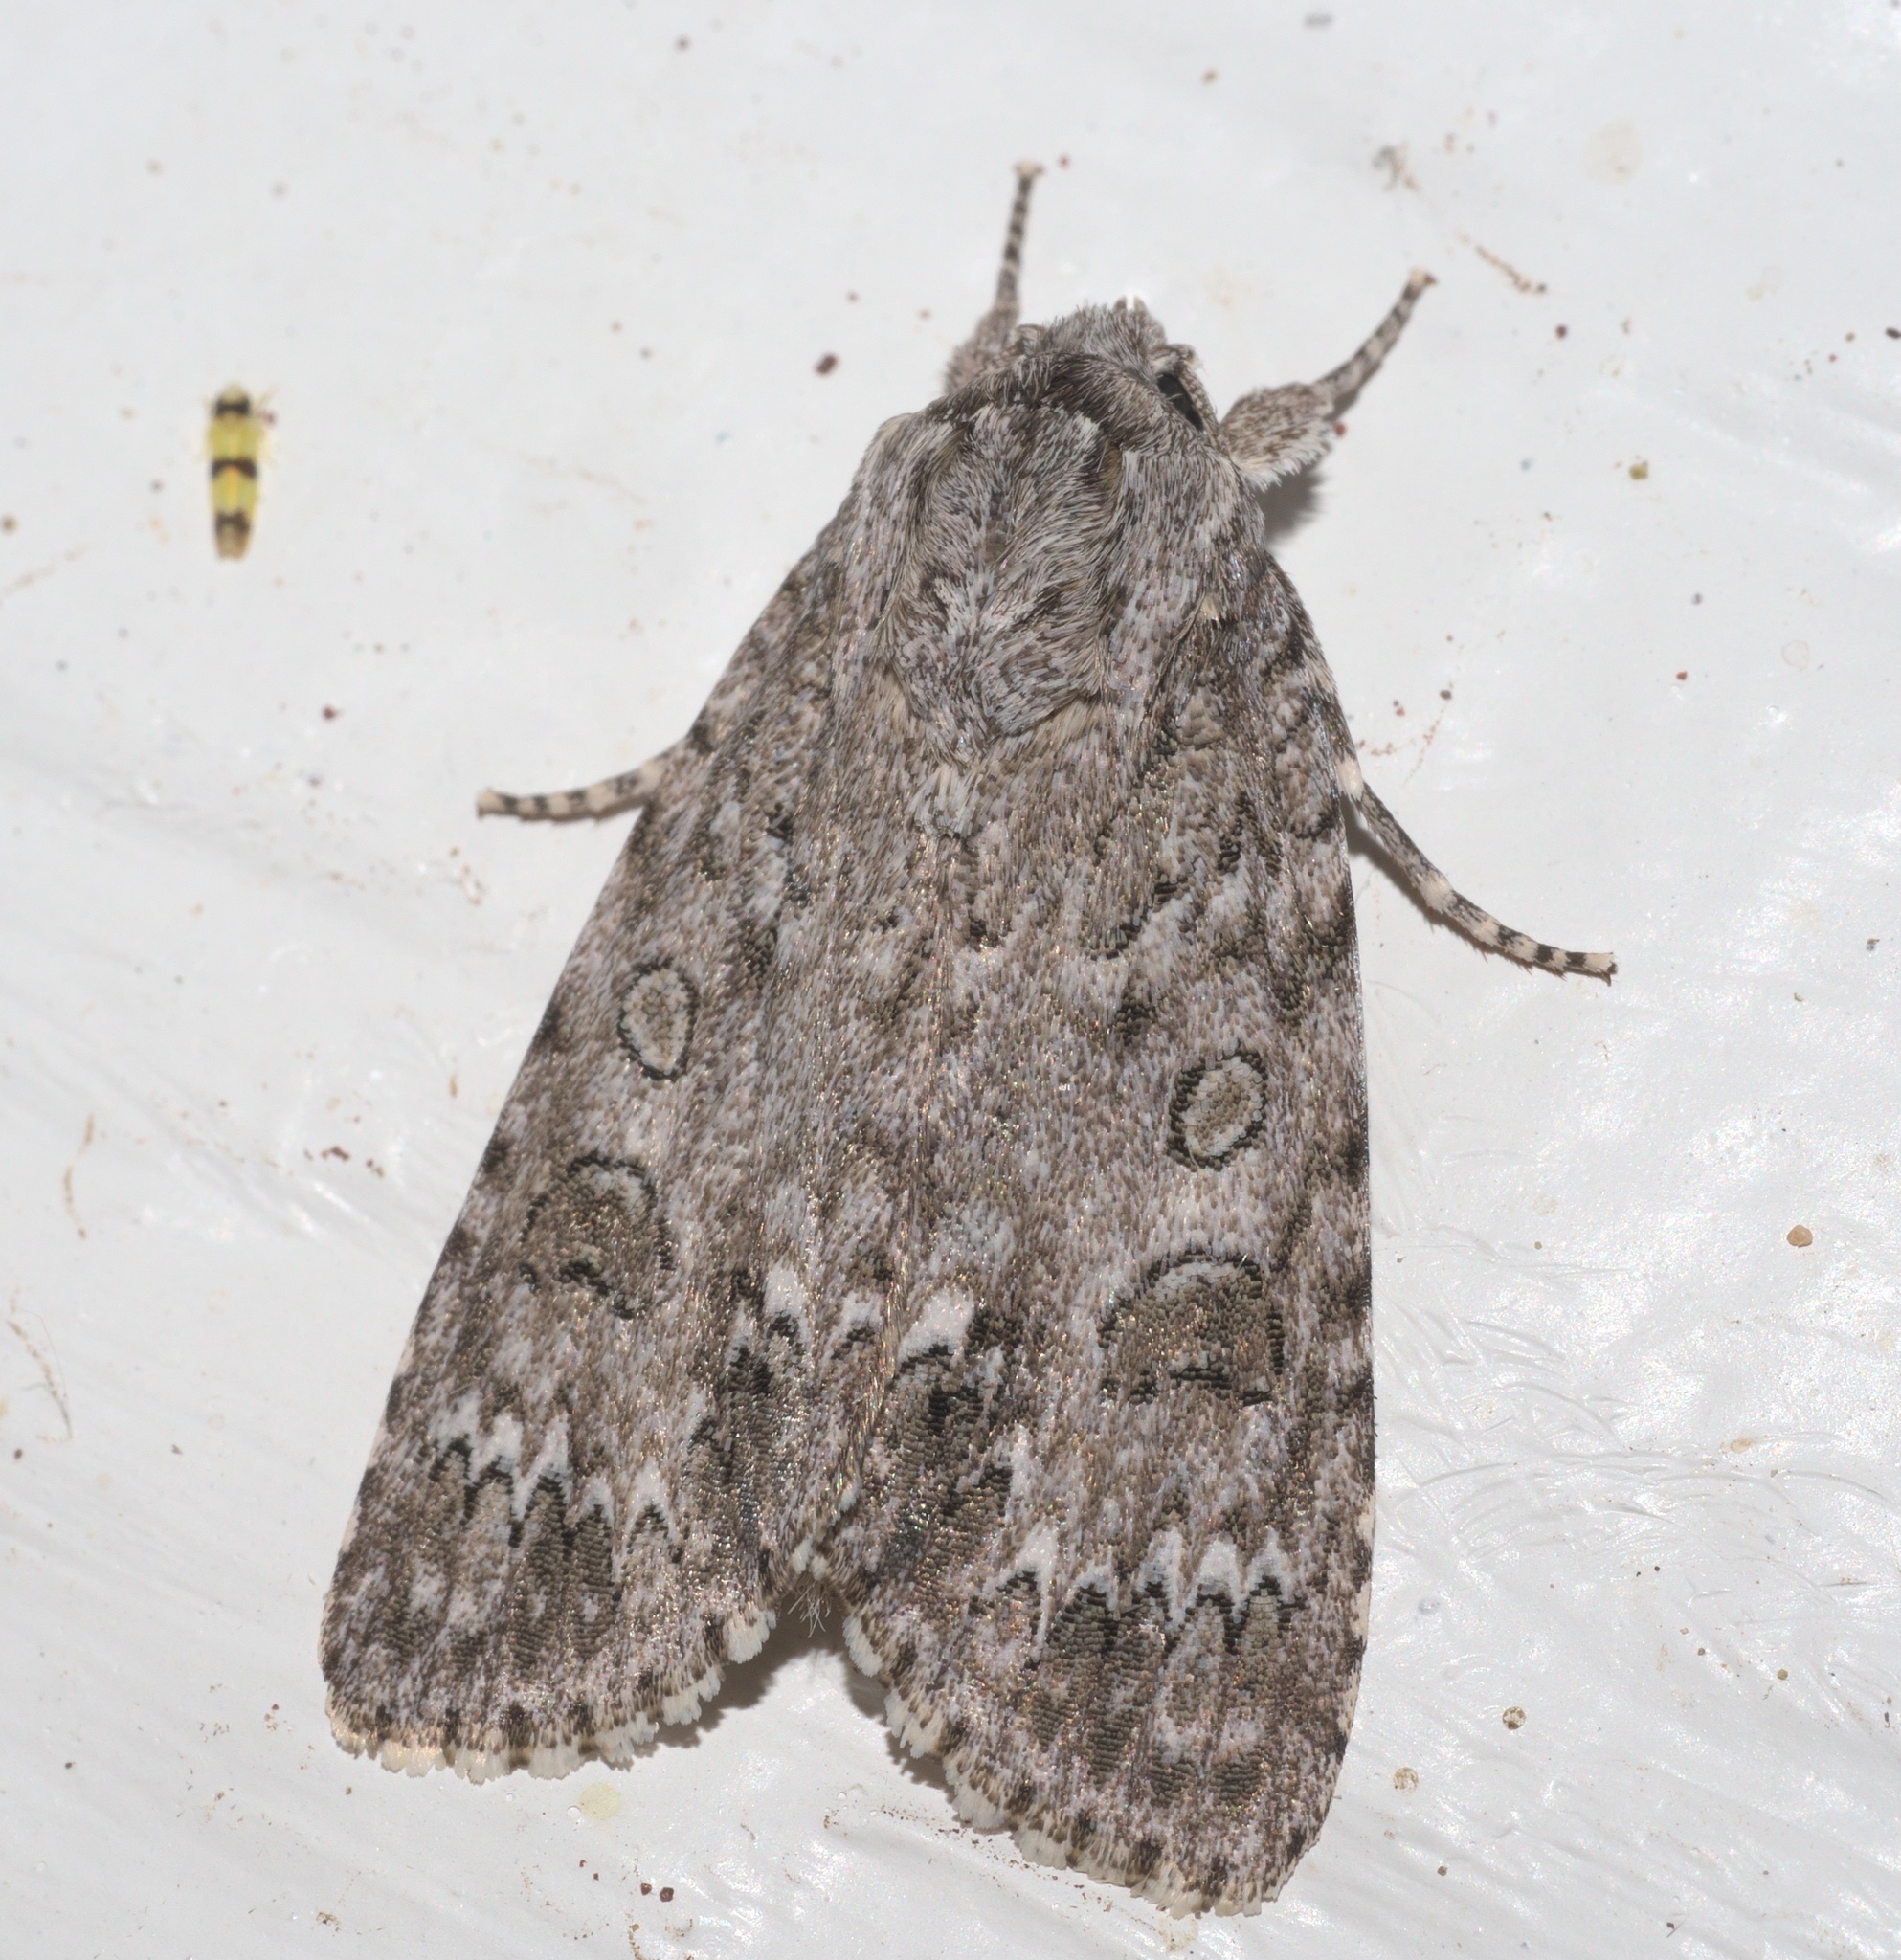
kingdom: Animalia
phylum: Arthropoda
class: Insecta
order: Lepidoptera
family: Noctuidae
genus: Acronicta
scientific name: Acronicta impleta
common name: Powdered dagger
